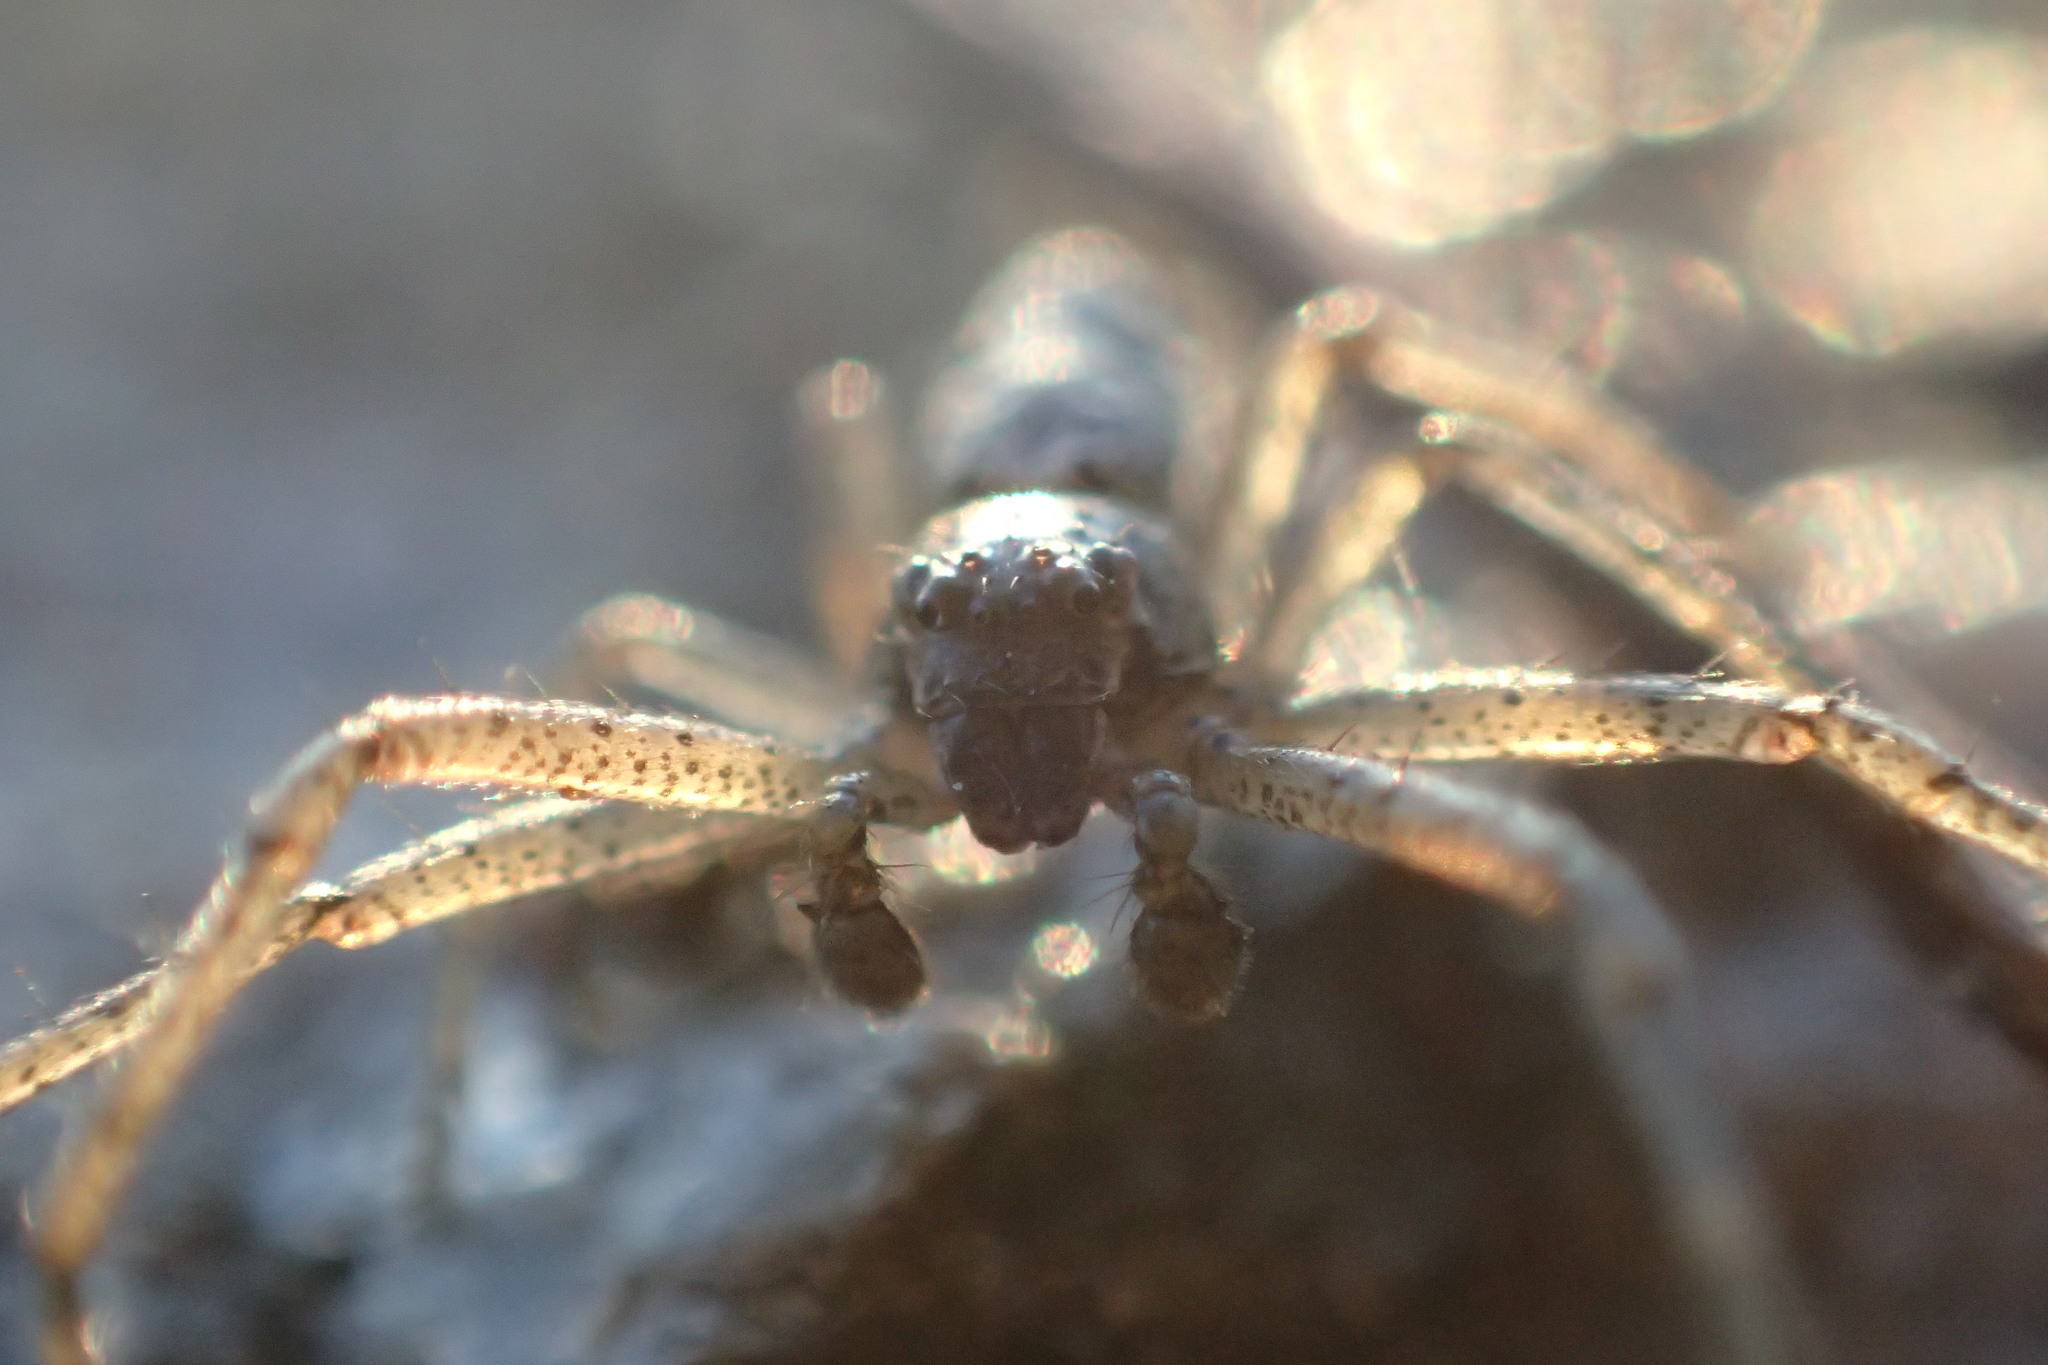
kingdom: Animalia
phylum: Arthropoda
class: Arachnida
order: Araneae
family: Thomisidae
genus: Tmarus
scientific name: Tmarus piger
